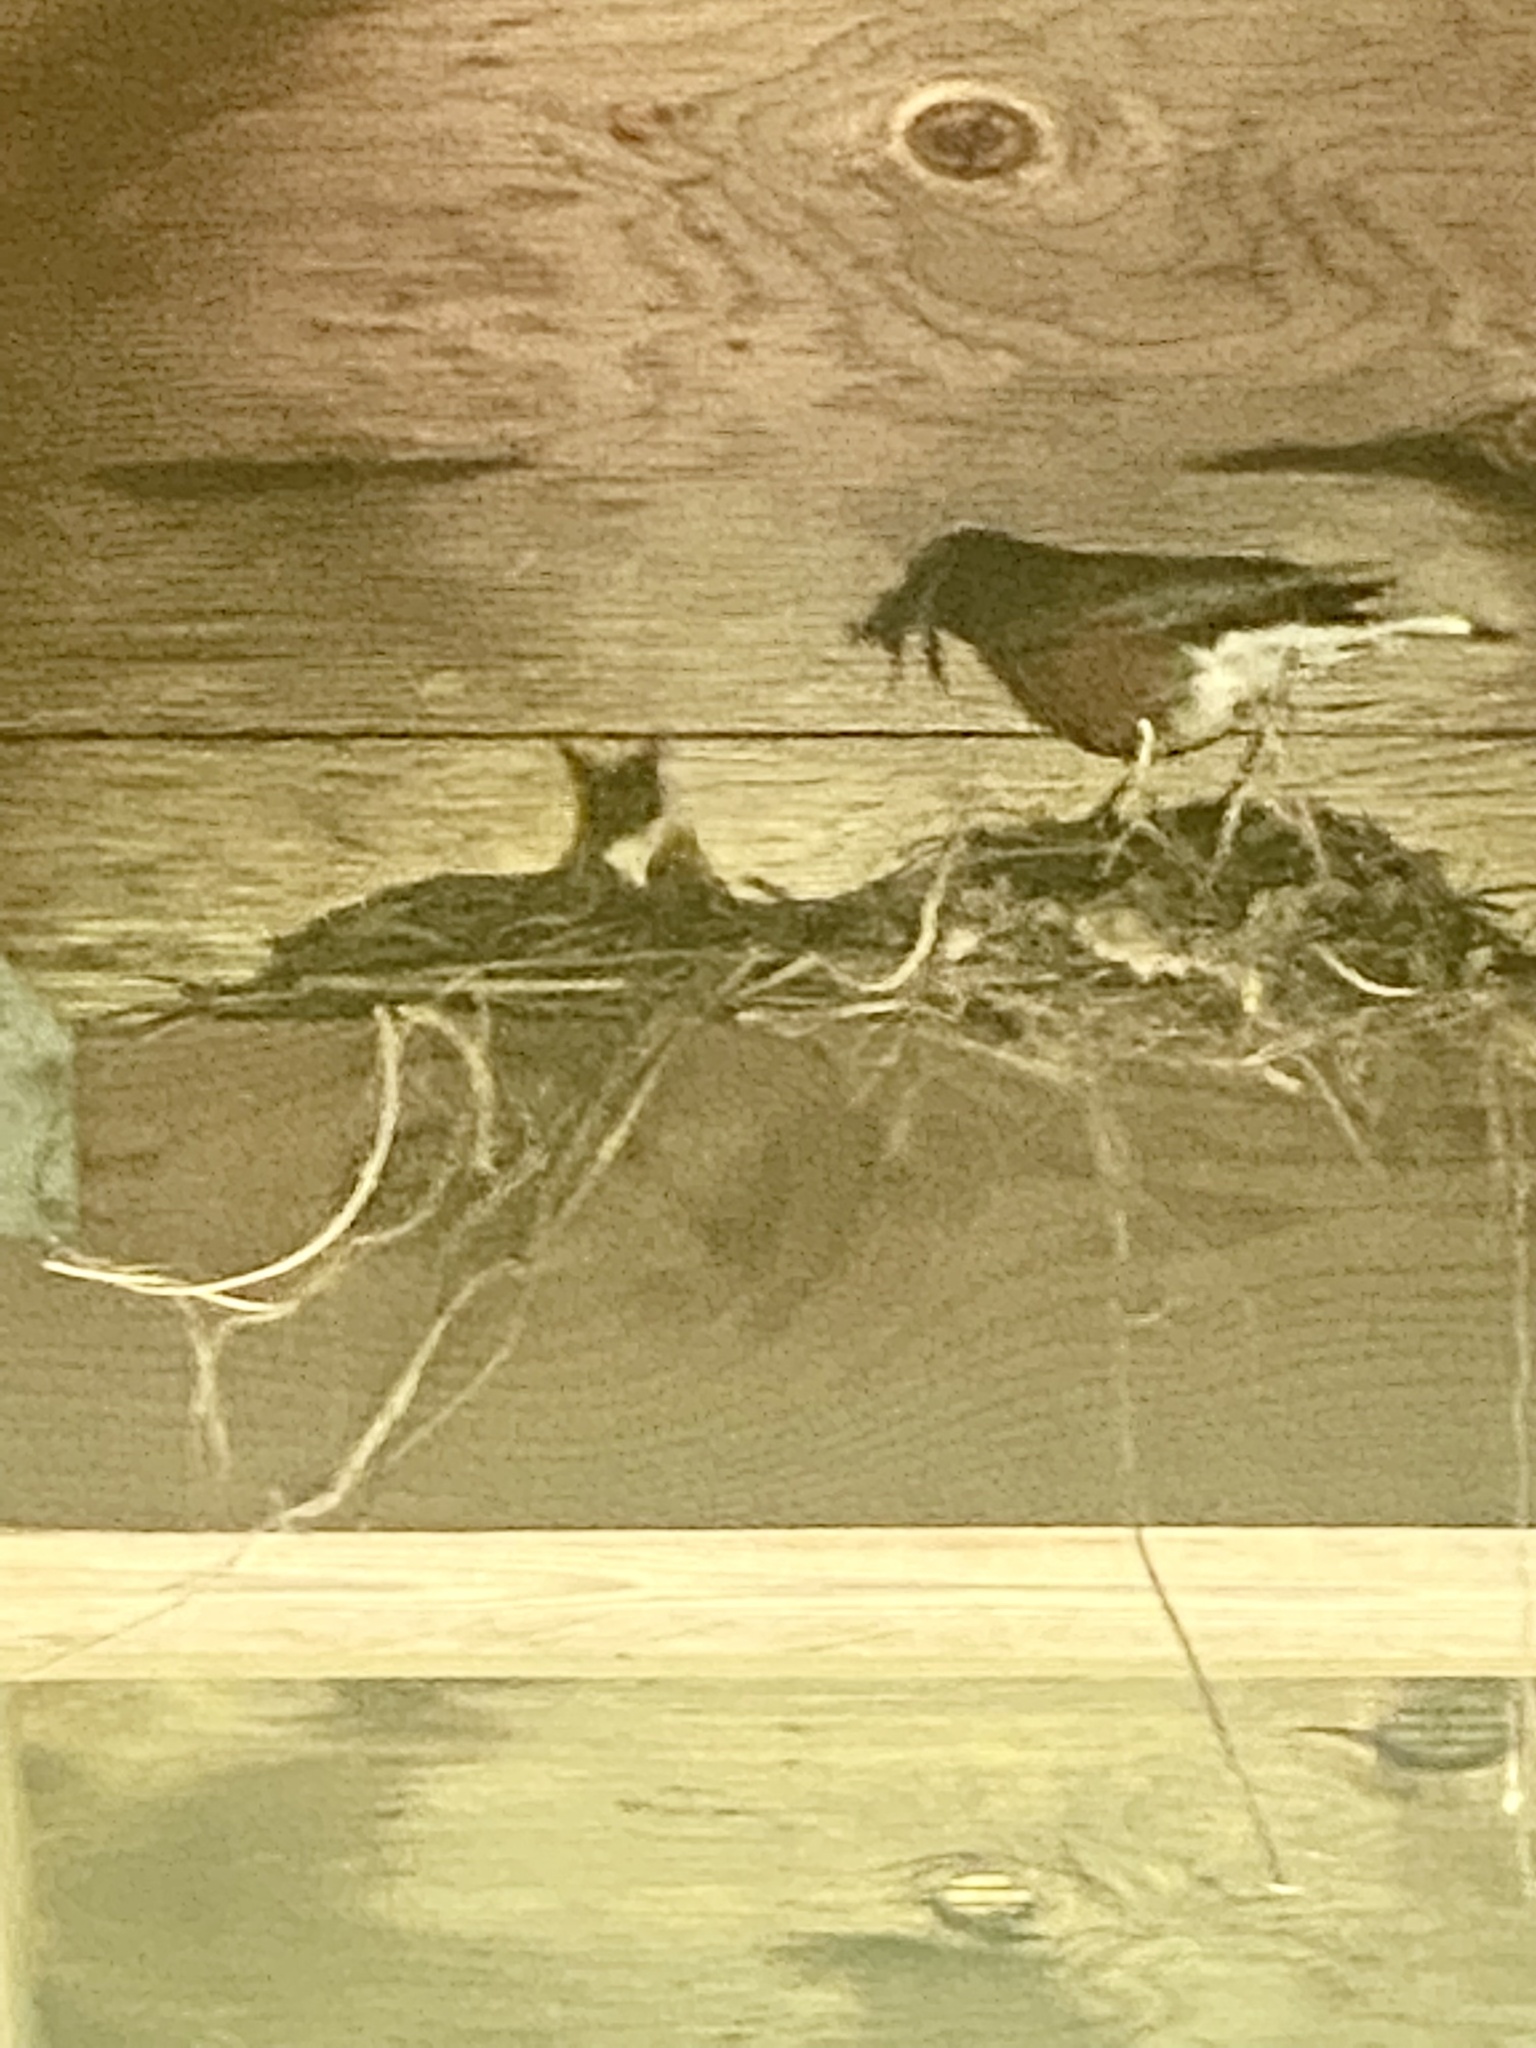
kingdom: Animalia
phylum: Chordata
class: Aves
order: Passeriformes
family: Turdidae
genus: Turdus
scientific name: Turdus migratorius
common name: American robin
